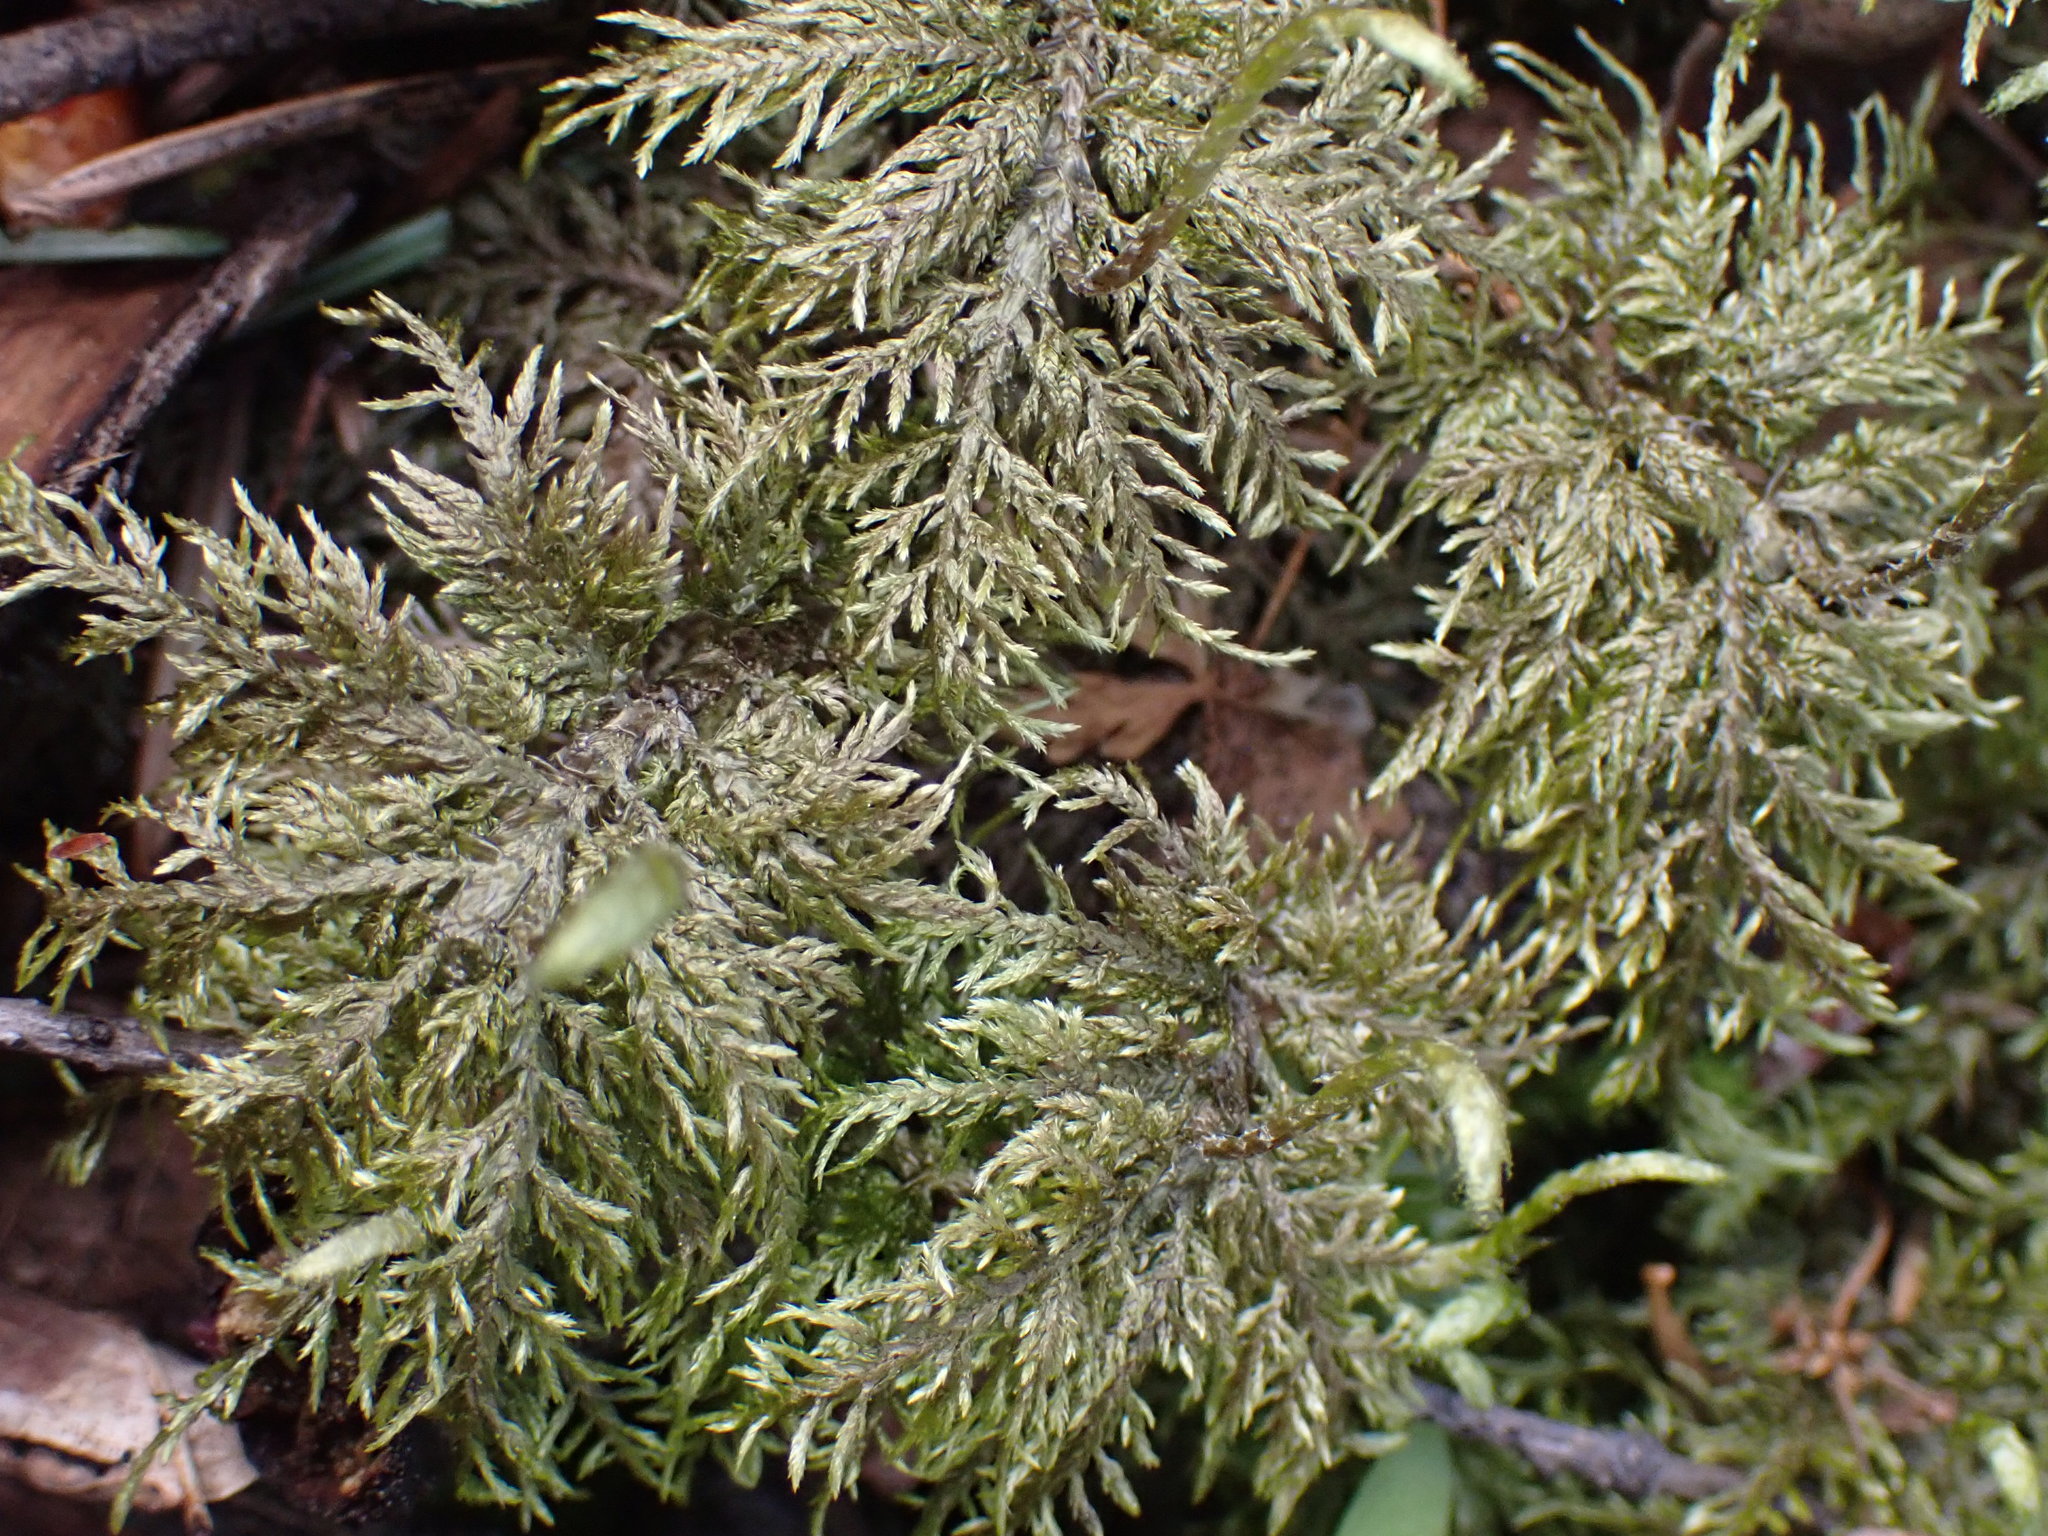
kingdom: Plantae
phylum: Bryophyta
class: Bryopsida
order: Hypnales
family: Hylocomiaceae
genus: Hylocomium
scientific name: Hylocomium splendens
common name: Stairstep moss
